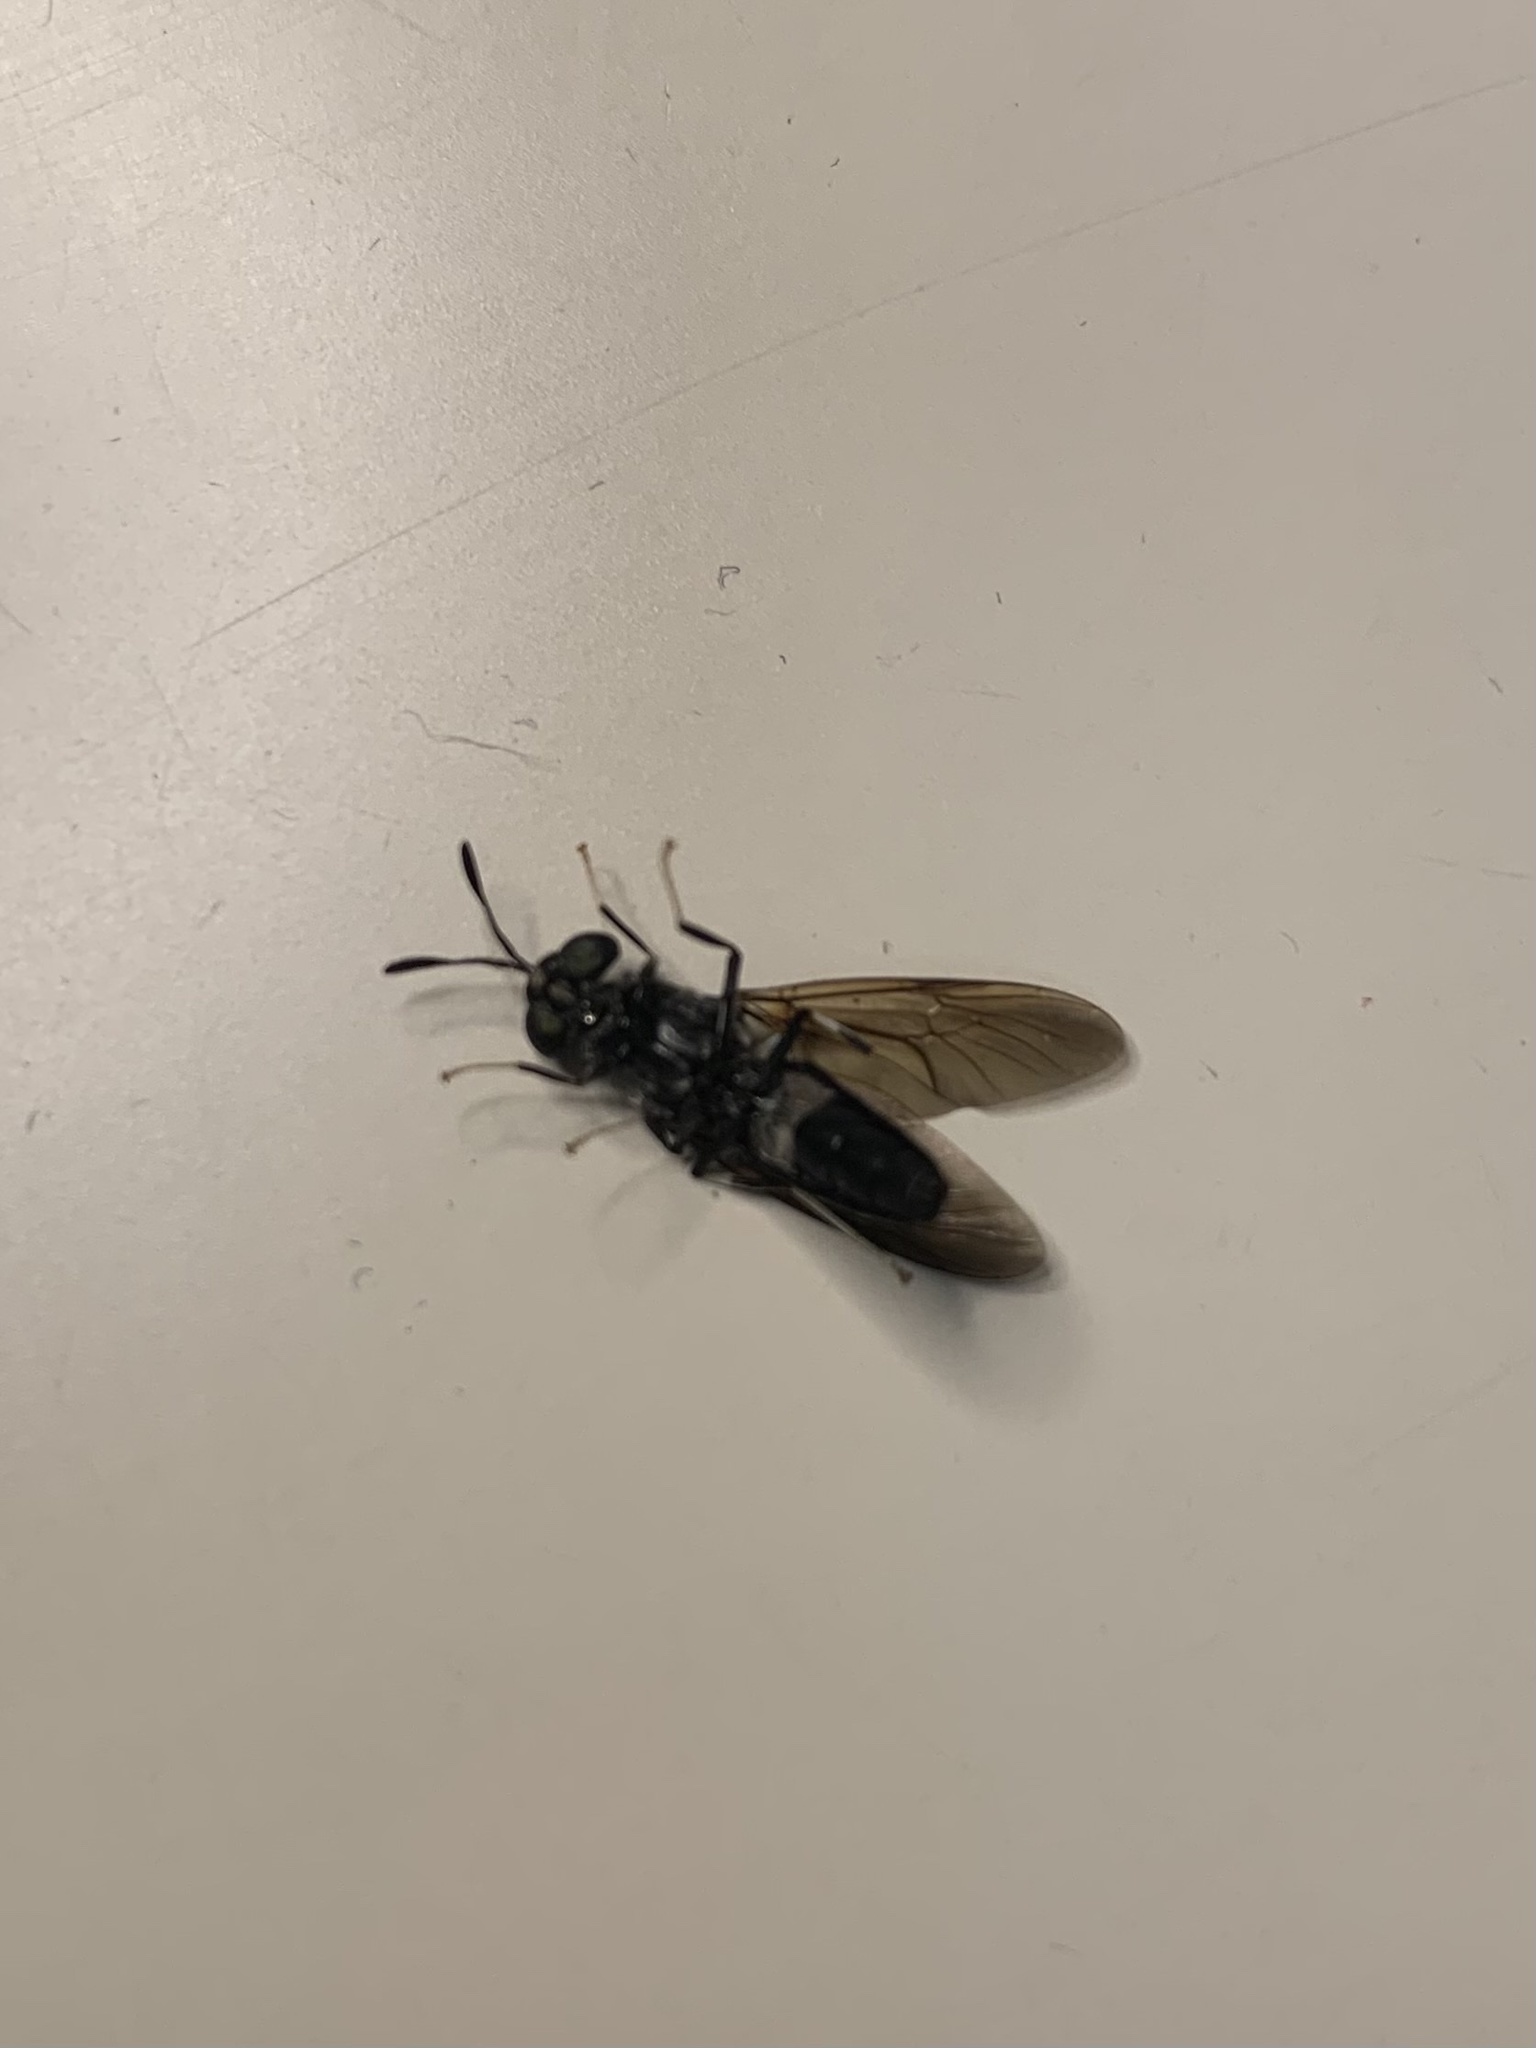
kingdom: Animalia
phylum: Arthropoda
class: Insecta
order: Diptera
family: Stratiomyidae
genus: Hermetia
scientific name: Hermetia illucens
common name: Black soldier fly
